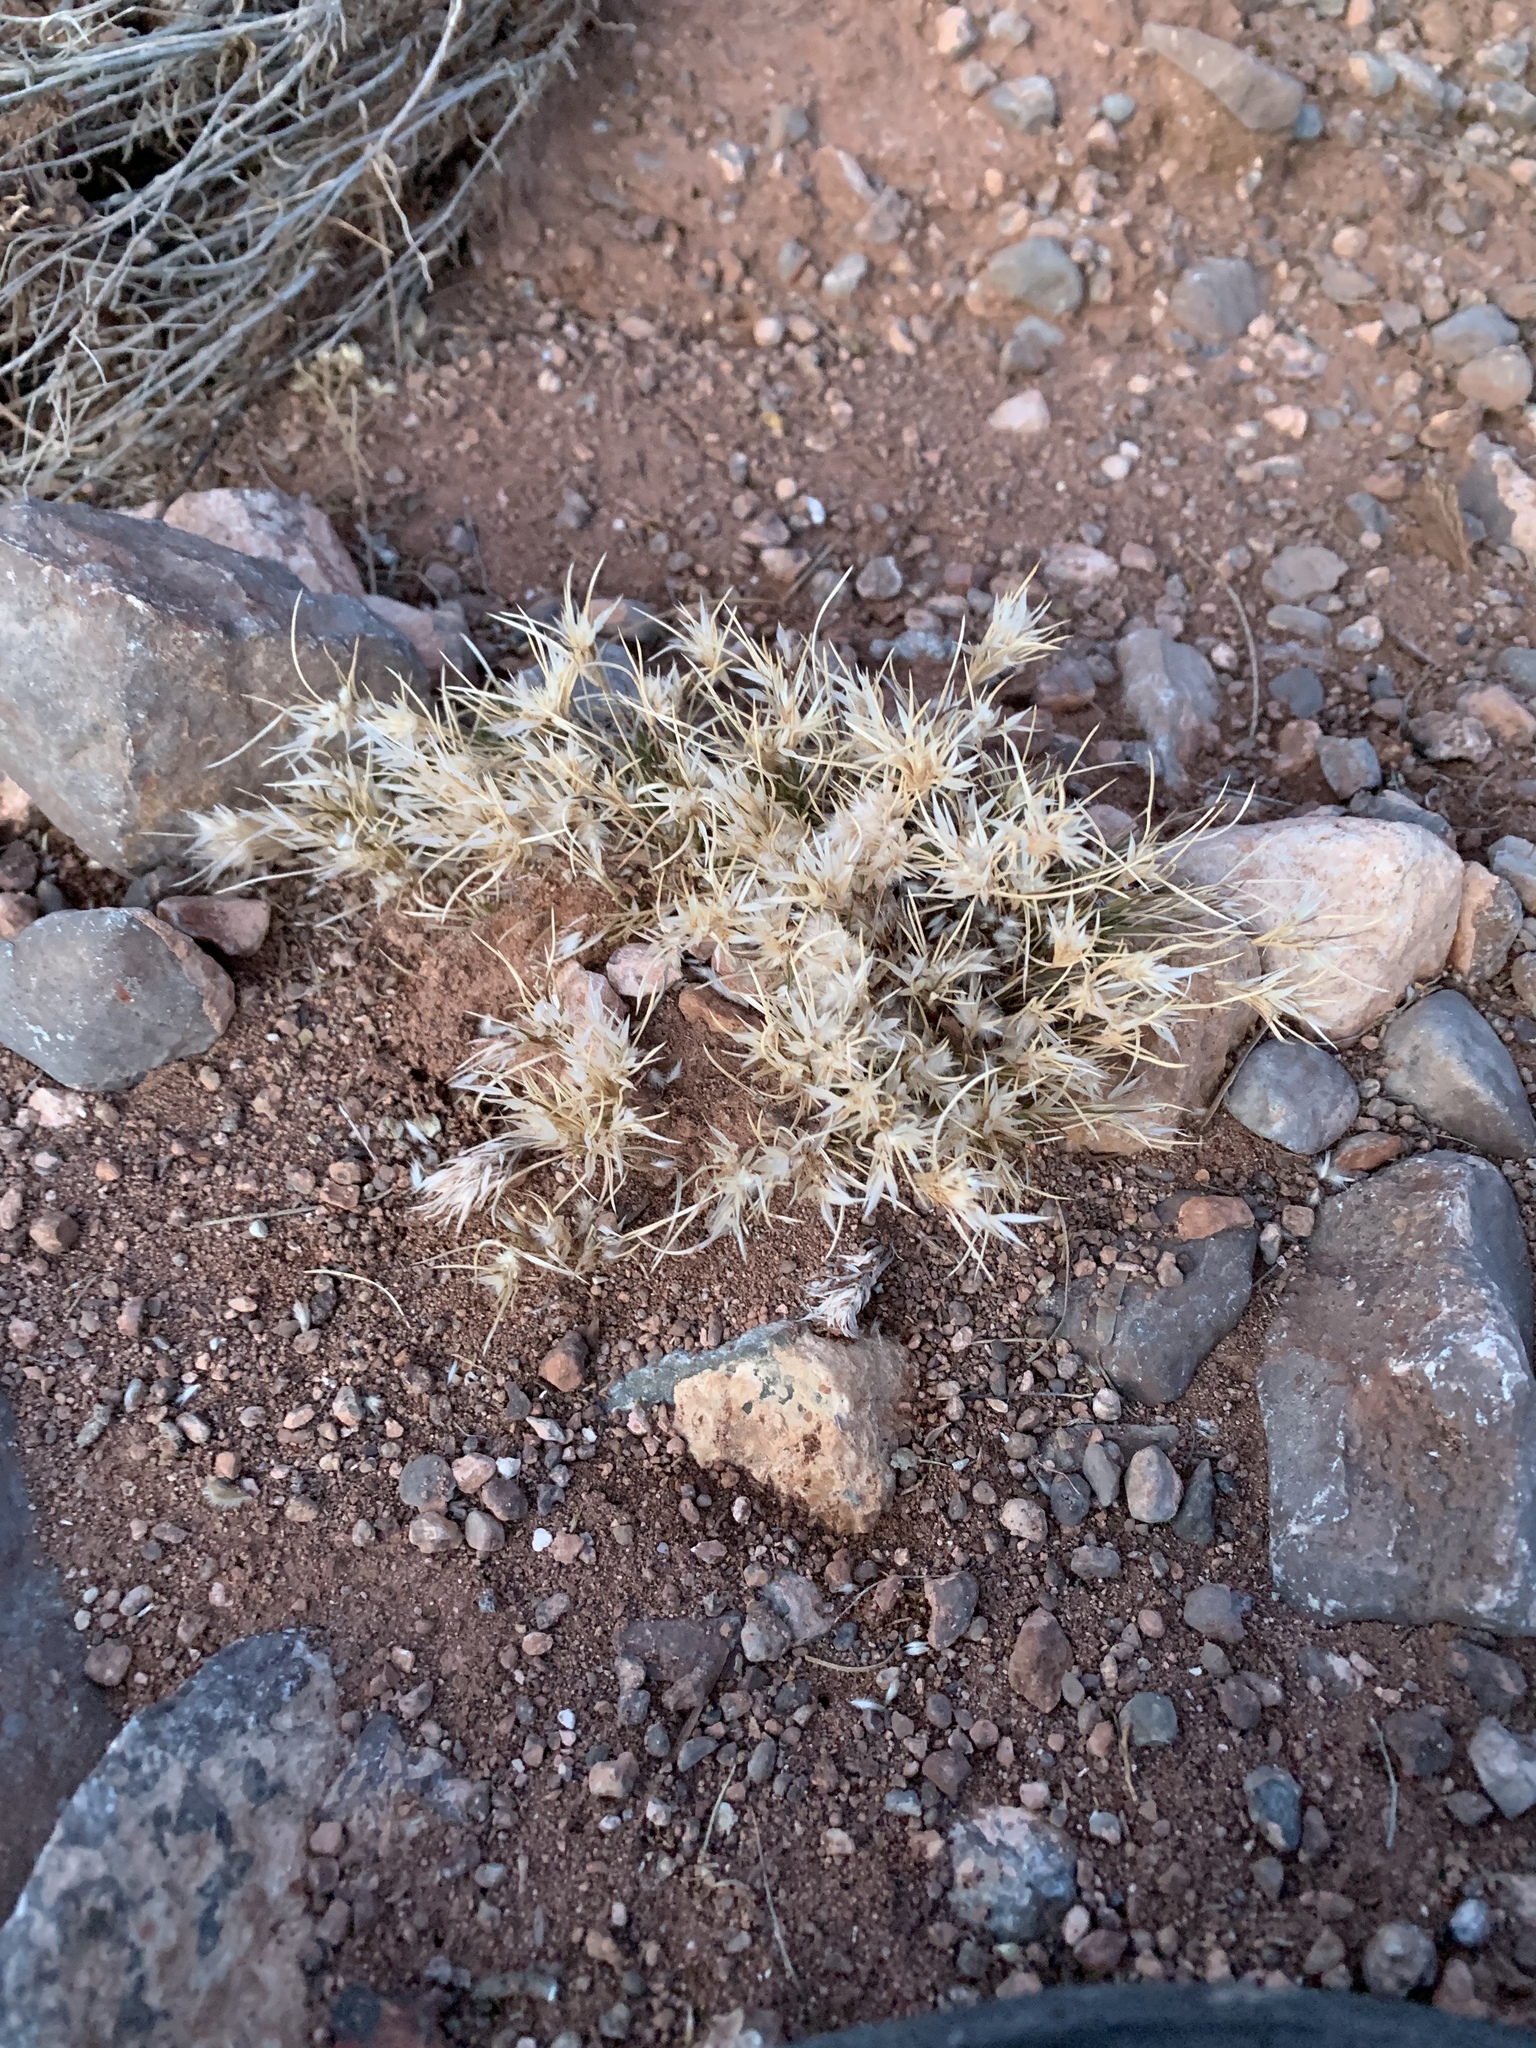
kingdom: Plantae
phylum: Tracheophyta
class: Liliopsida
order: Poales
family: Poaceae
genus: Dasyochloa
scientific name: Dasyochloa pulchella
